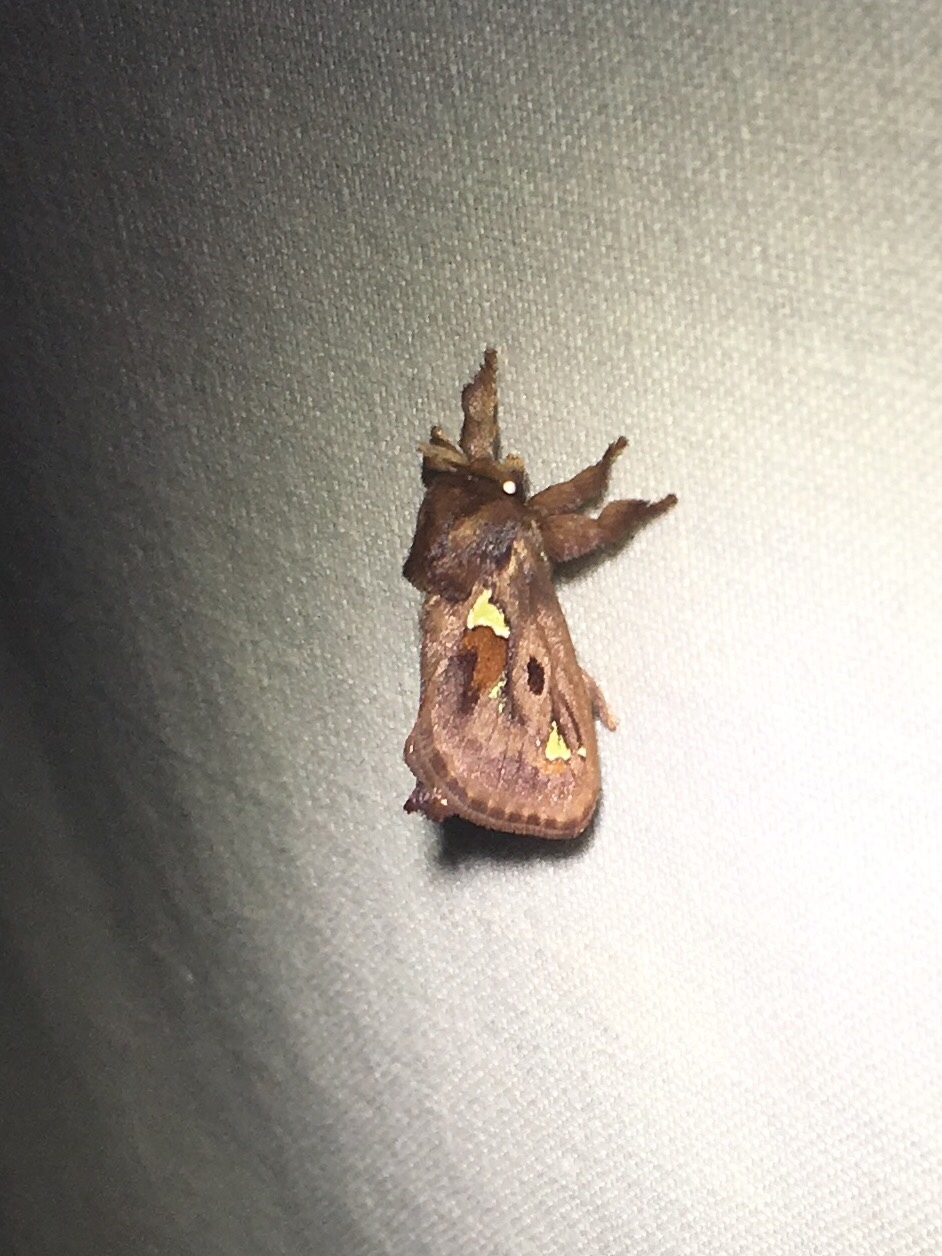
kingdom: Animalia
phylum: Arthropoda
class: Insecta
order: Lepidoptera
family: Limacodidae
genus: Euclea
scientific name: Euclea delphinii
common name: Spiny oak-slug moth
